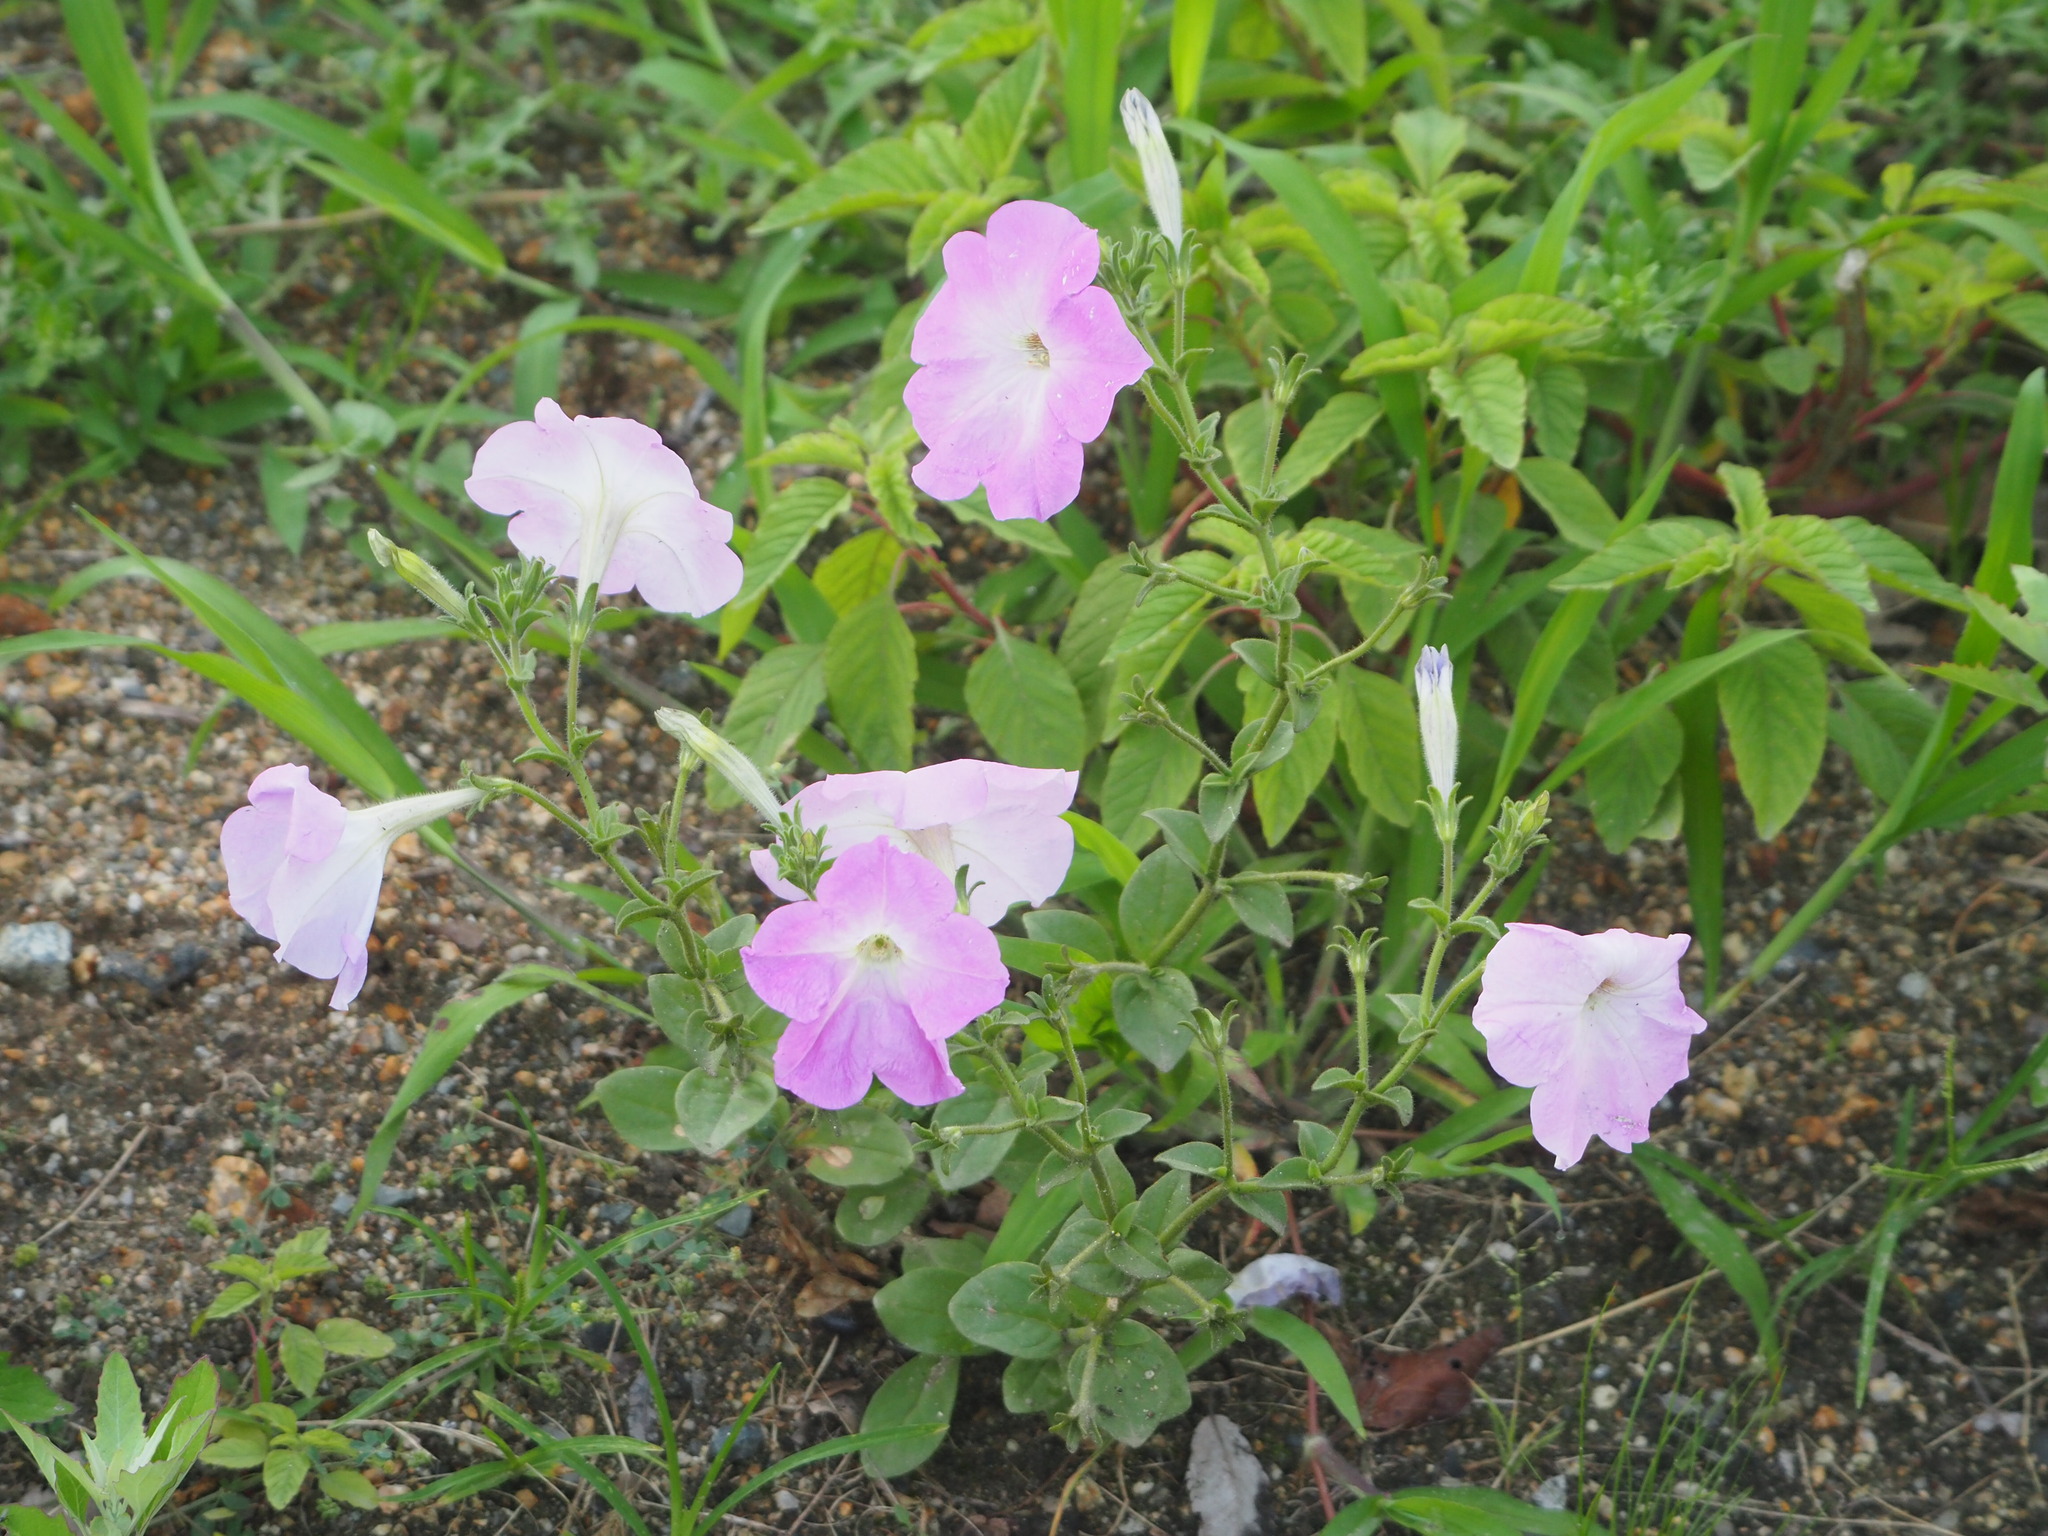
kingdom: Plantae
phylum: Tracheophyta
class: Magnoliopsida
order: Myrtales
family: Onagraceae
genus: Oenothera
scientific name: Oenothera speciosa
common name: White evening-primrose
